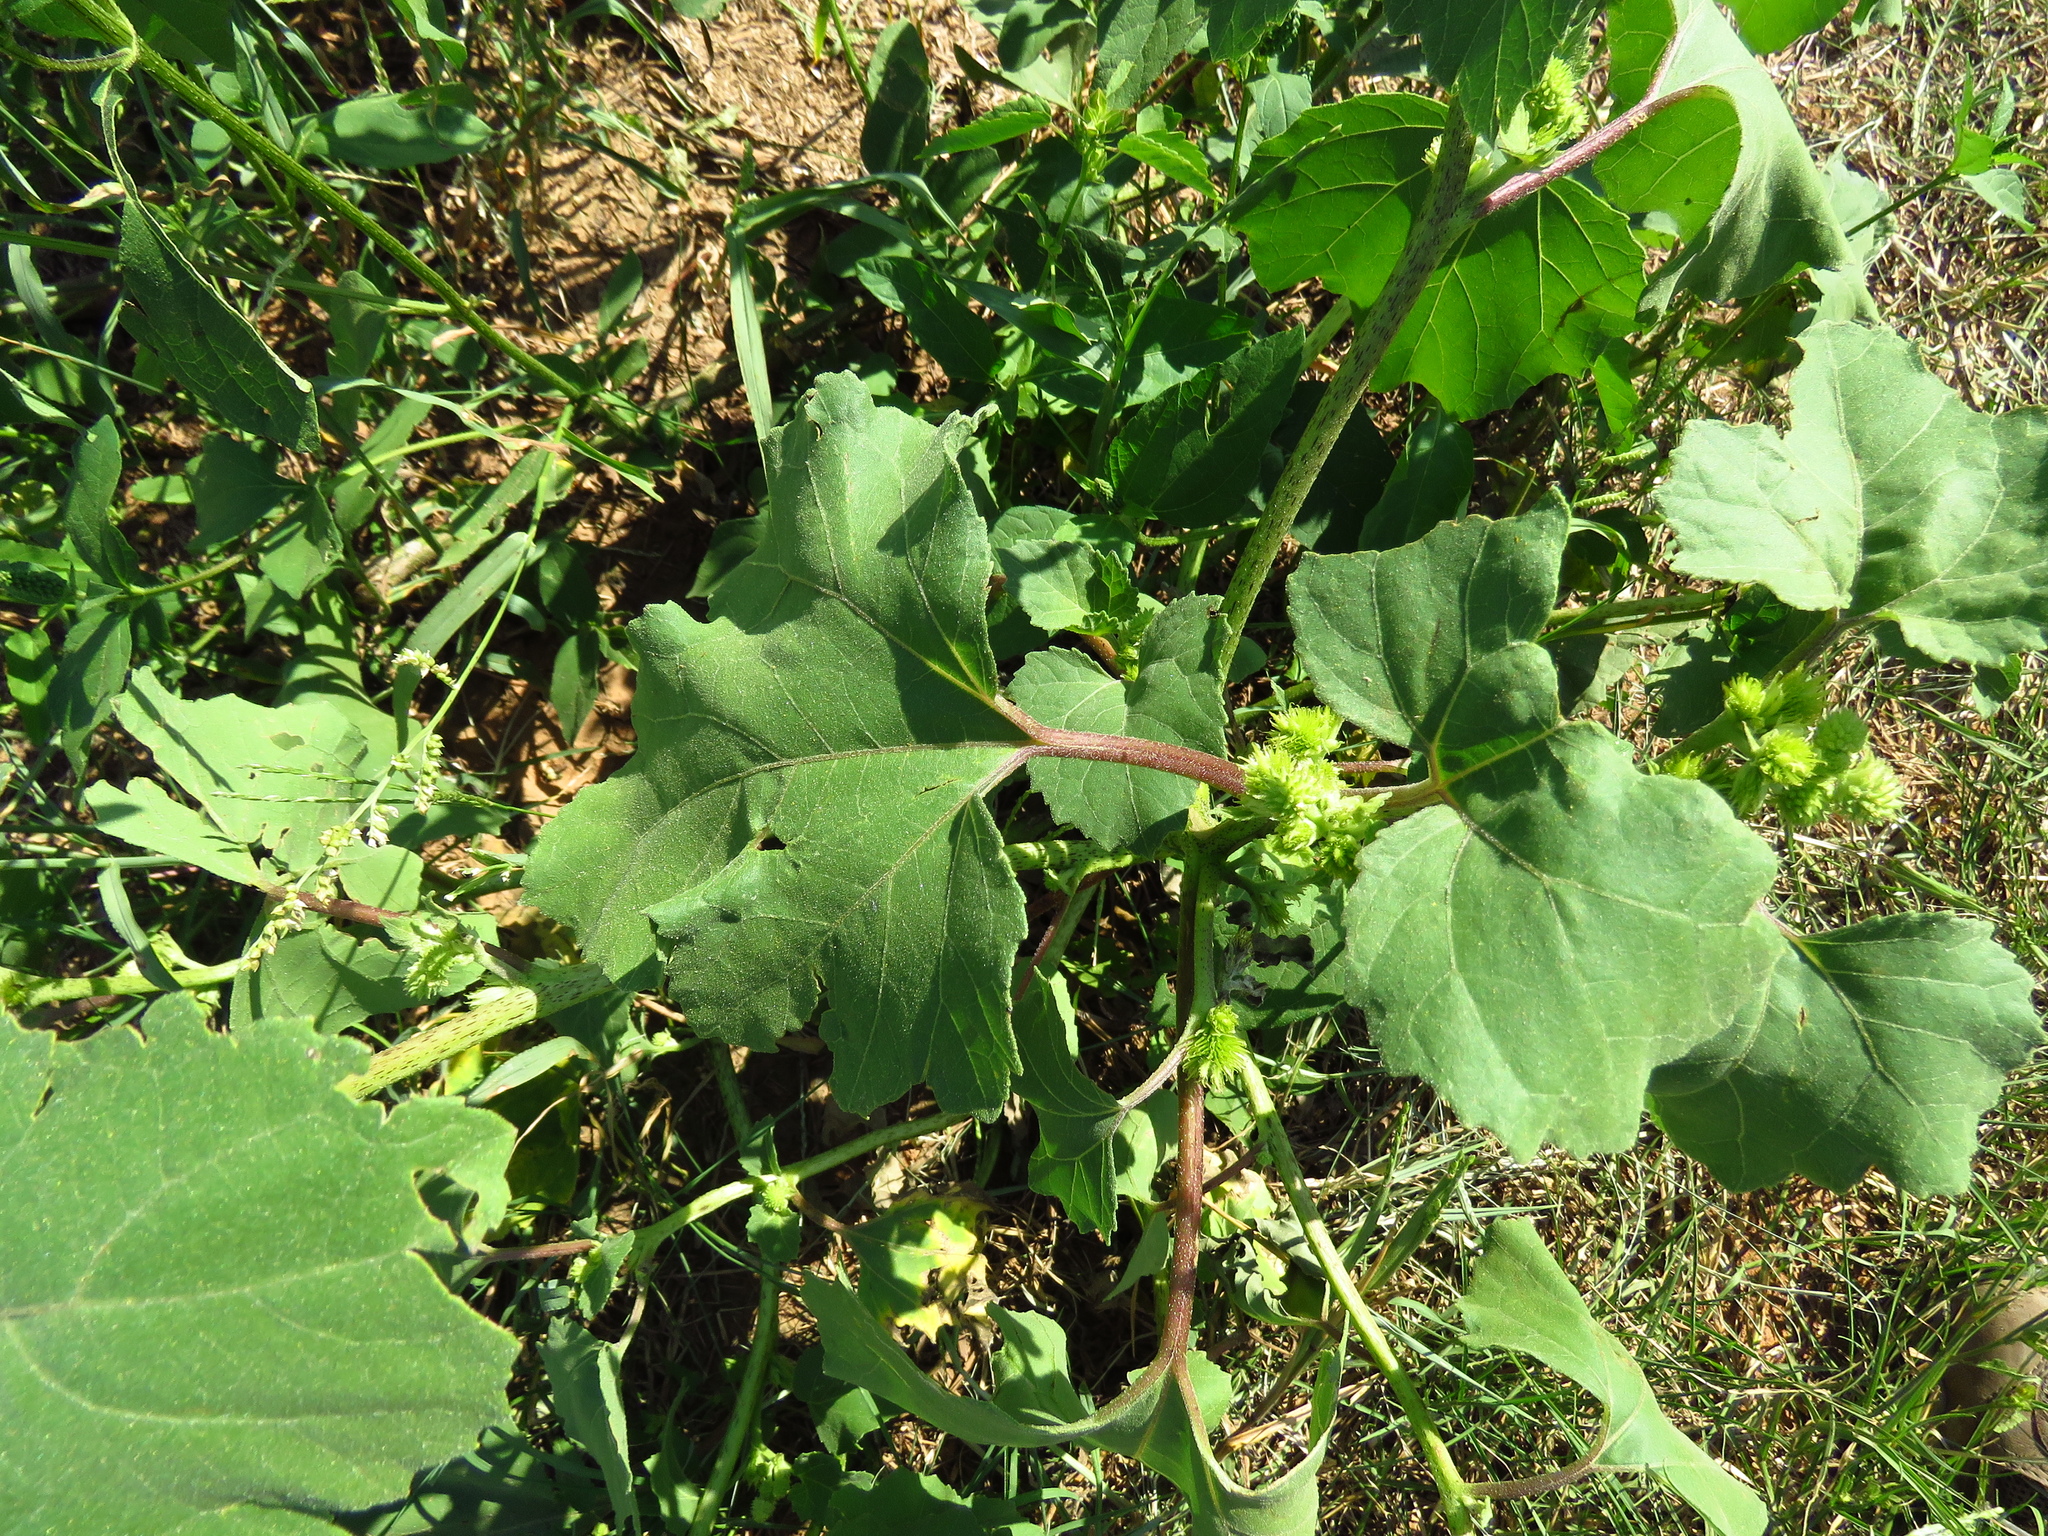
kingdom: Plantae
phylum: Tracheophyta
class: Magnoliopsida
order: Asterales
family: Asteraceae
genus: Xanthium
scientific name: Xanthium strumarium
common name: Rough cocklebur
